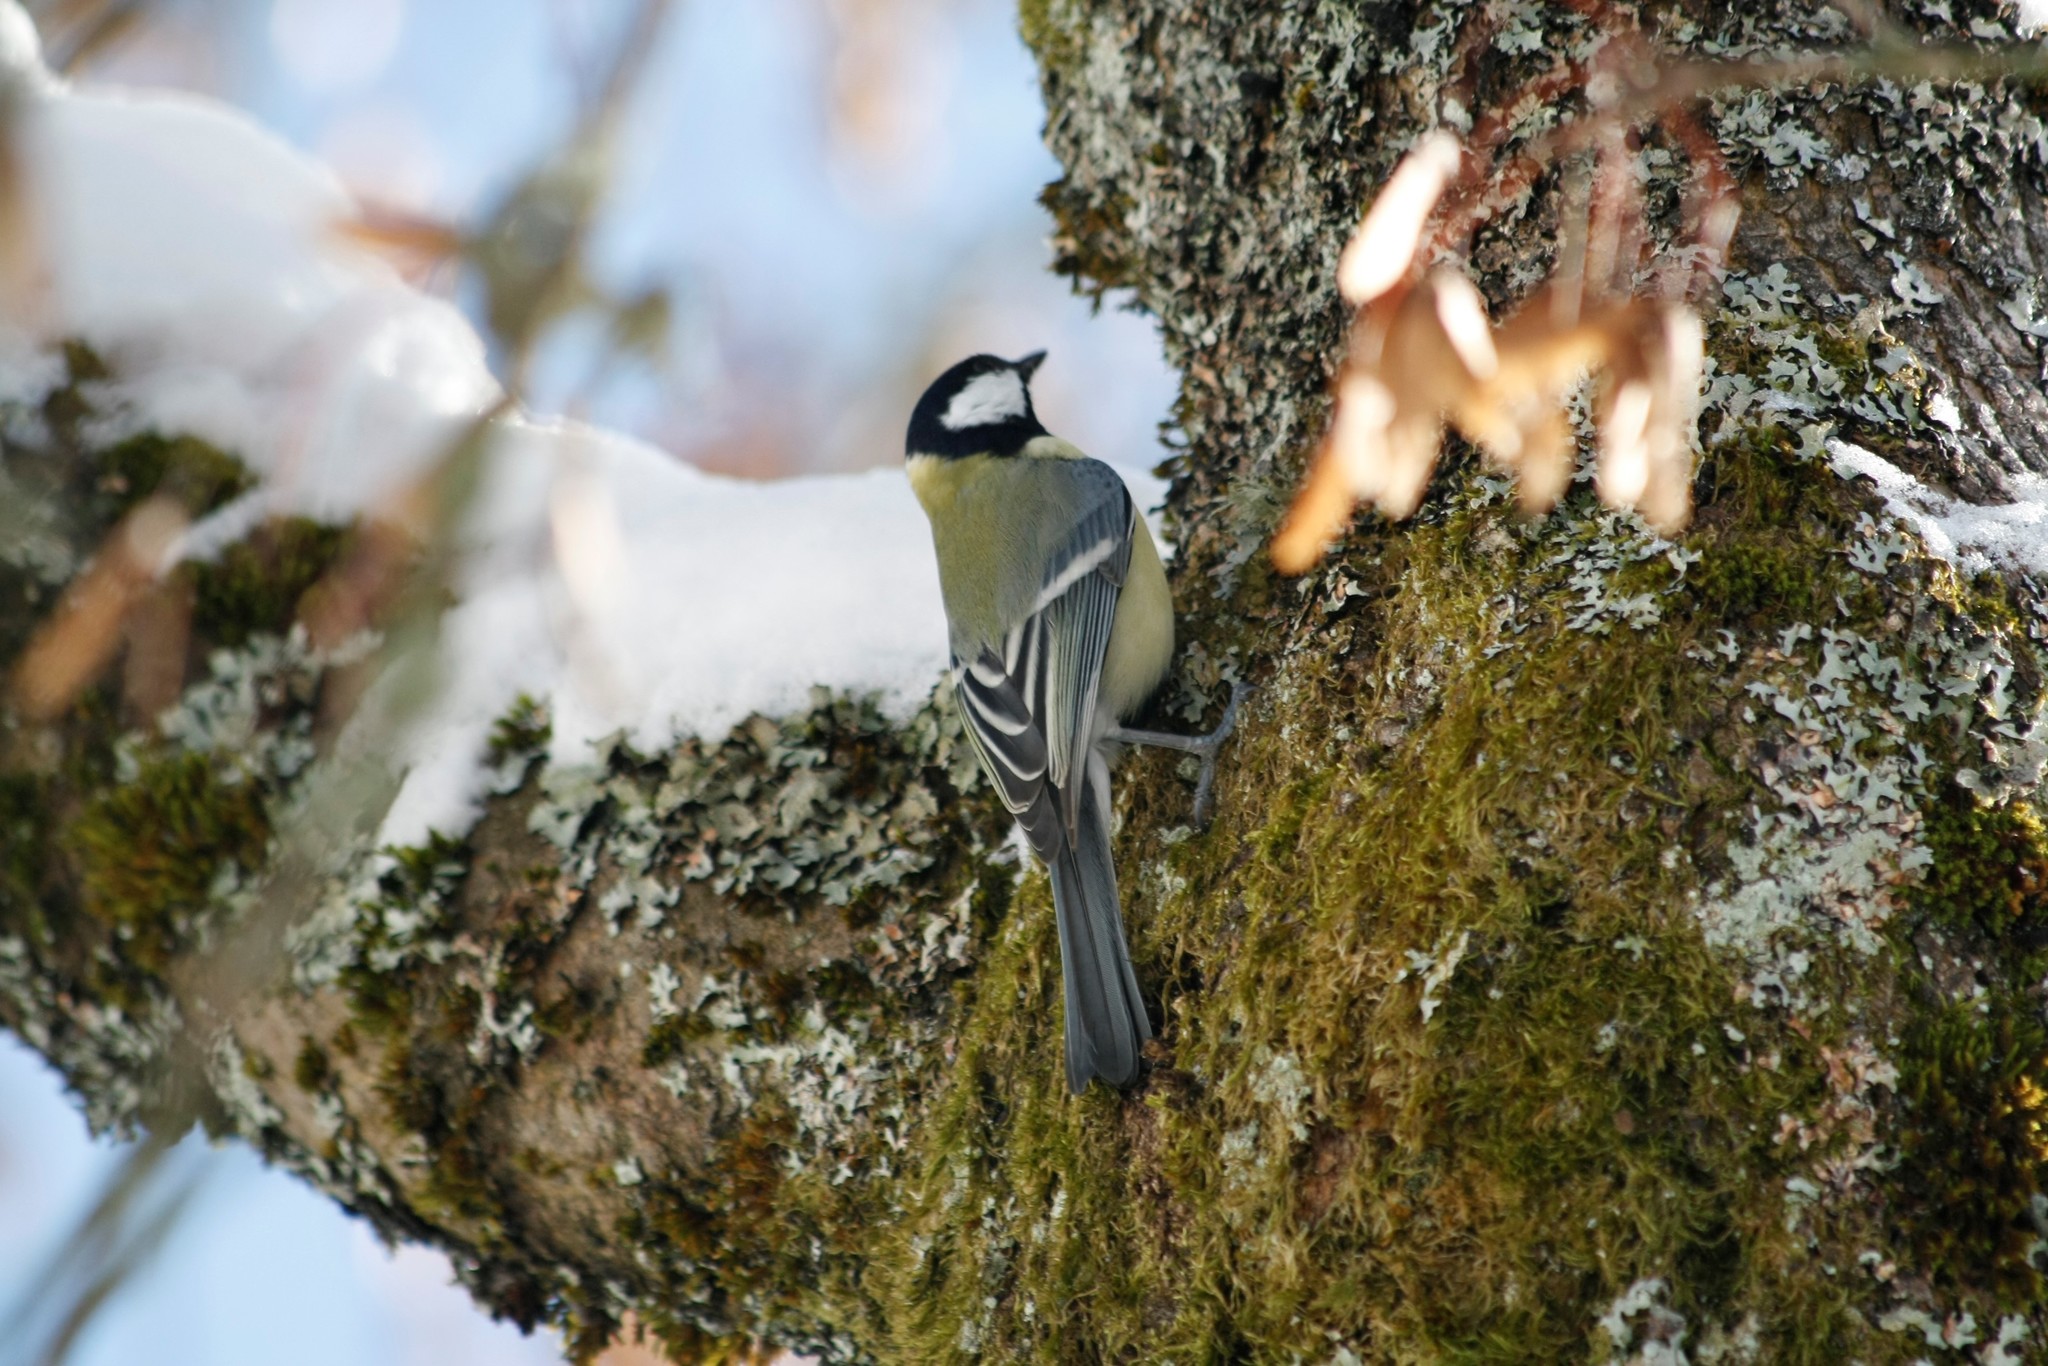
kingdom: Animalia
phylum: Chordata
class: Aves
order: Passeriformes
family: Paridae
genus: Parus
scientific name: Parus major
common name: Great tit
